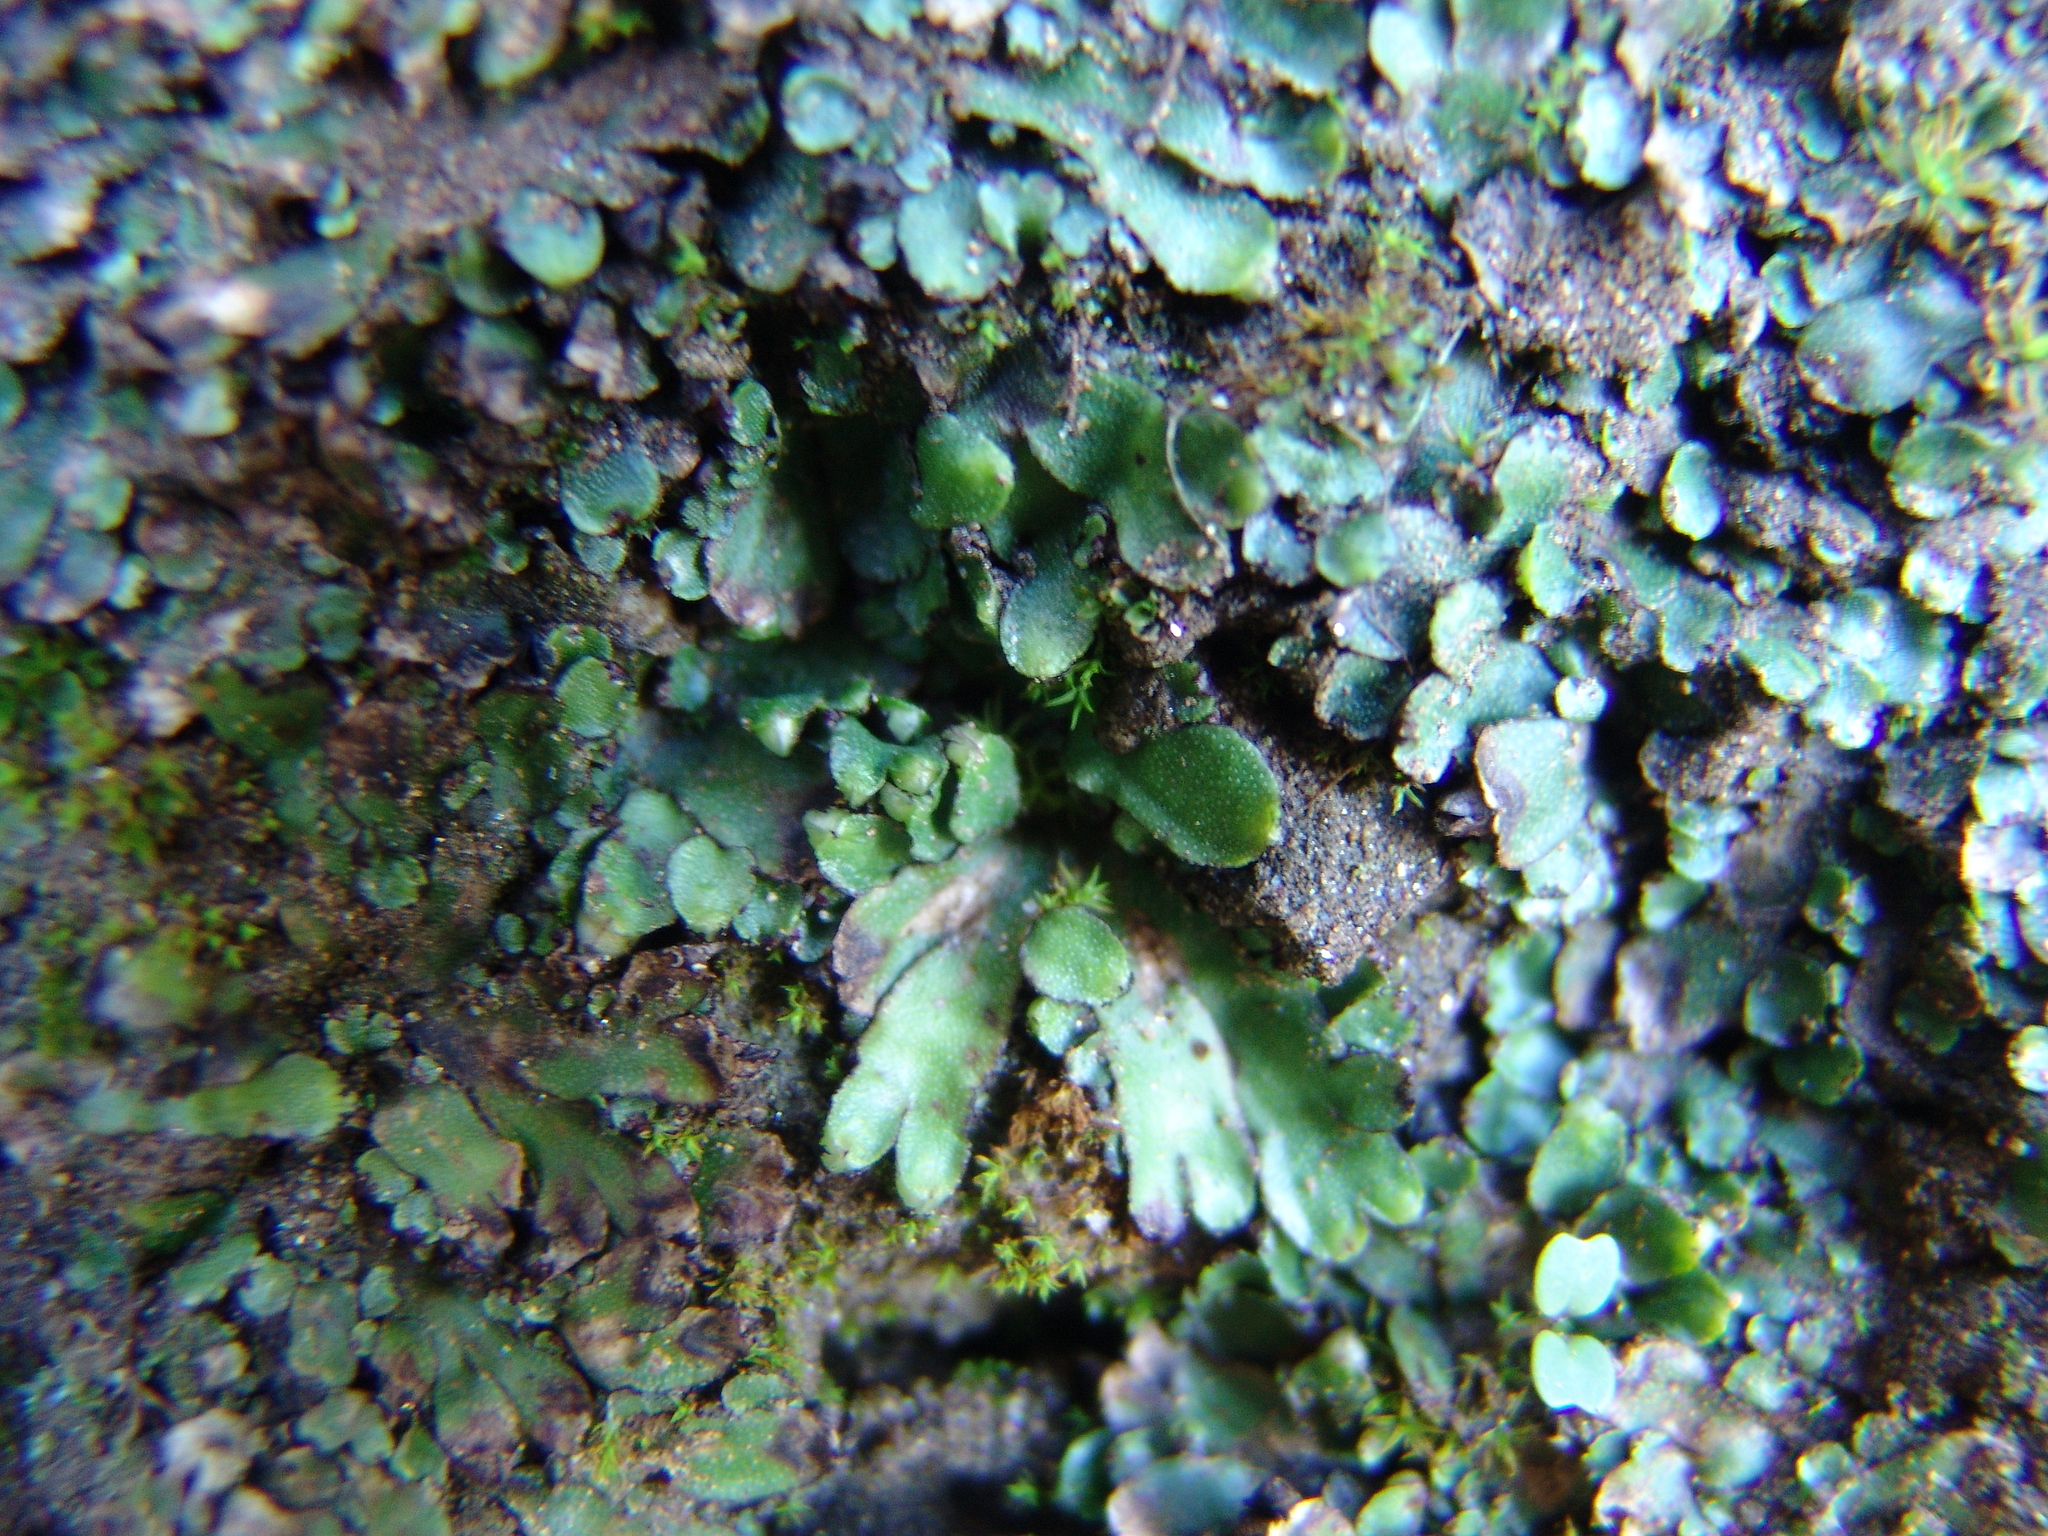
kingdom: Plantae
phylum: Marchantiophyta
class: Marchantiopsida
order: Marchantiales
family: Targioniaceae
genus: Targionia
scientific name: Targionia hypophylla
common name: Orobus-seed liverwort
